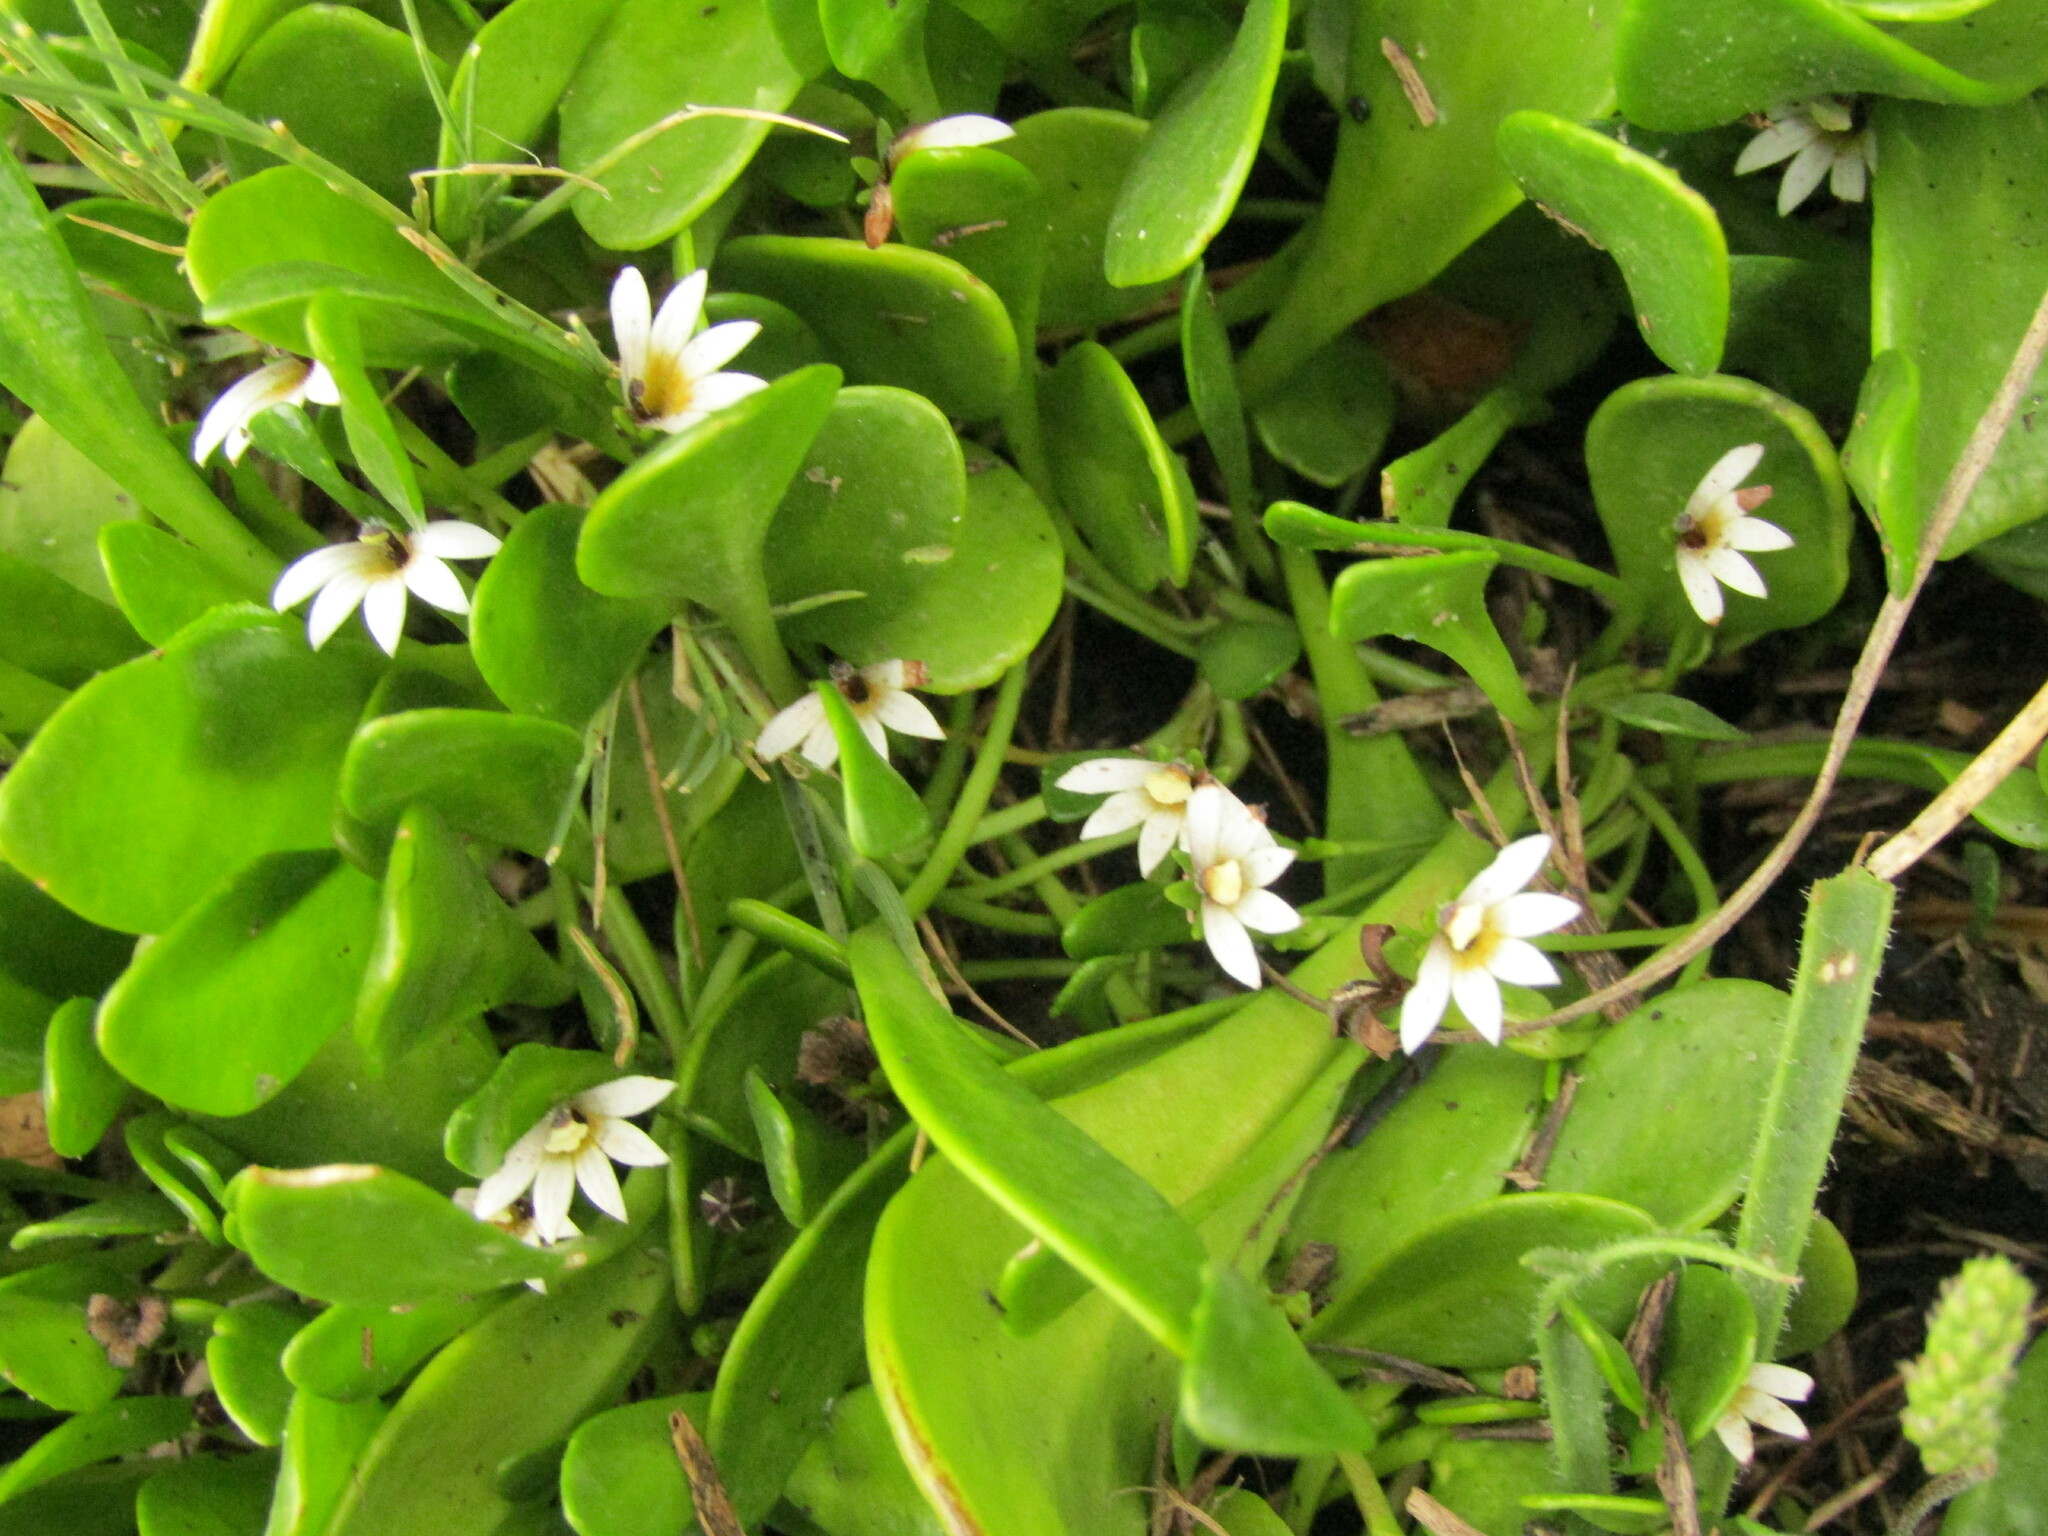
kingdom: Plantae
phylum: Tracheophyta
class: Magnoliopsida
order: Asterales
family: Goodeniaceae
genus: Goodenia
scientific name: Goodenia radicans
